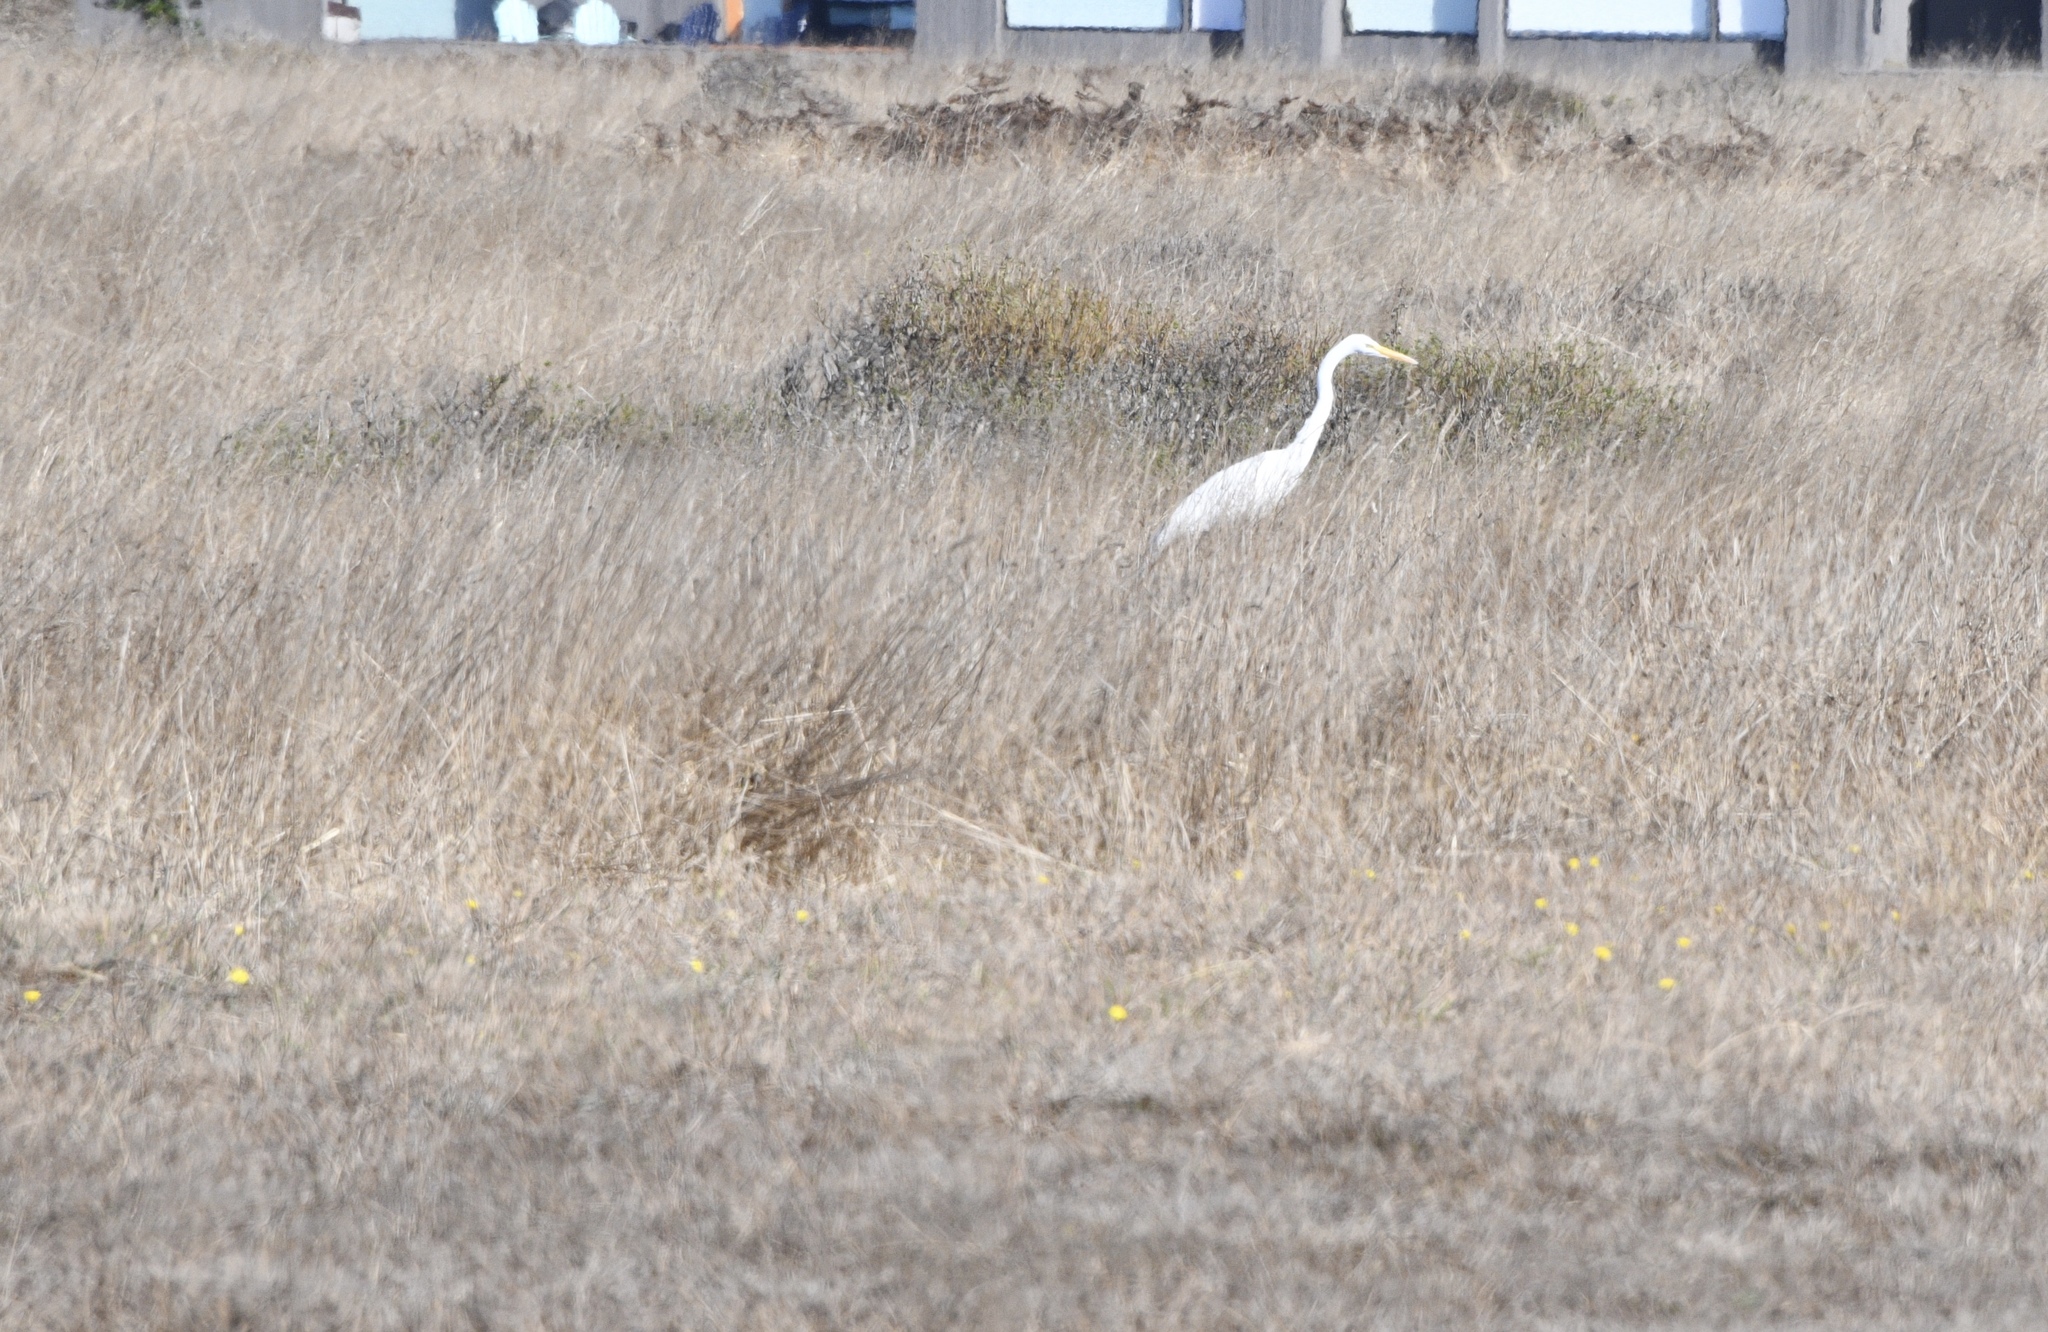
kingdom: Animalia
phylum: Chordata
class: Aves
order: Pelecaniformes
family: Ardeidae
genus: Ardea
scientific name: Ardea alba
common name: Great egret
